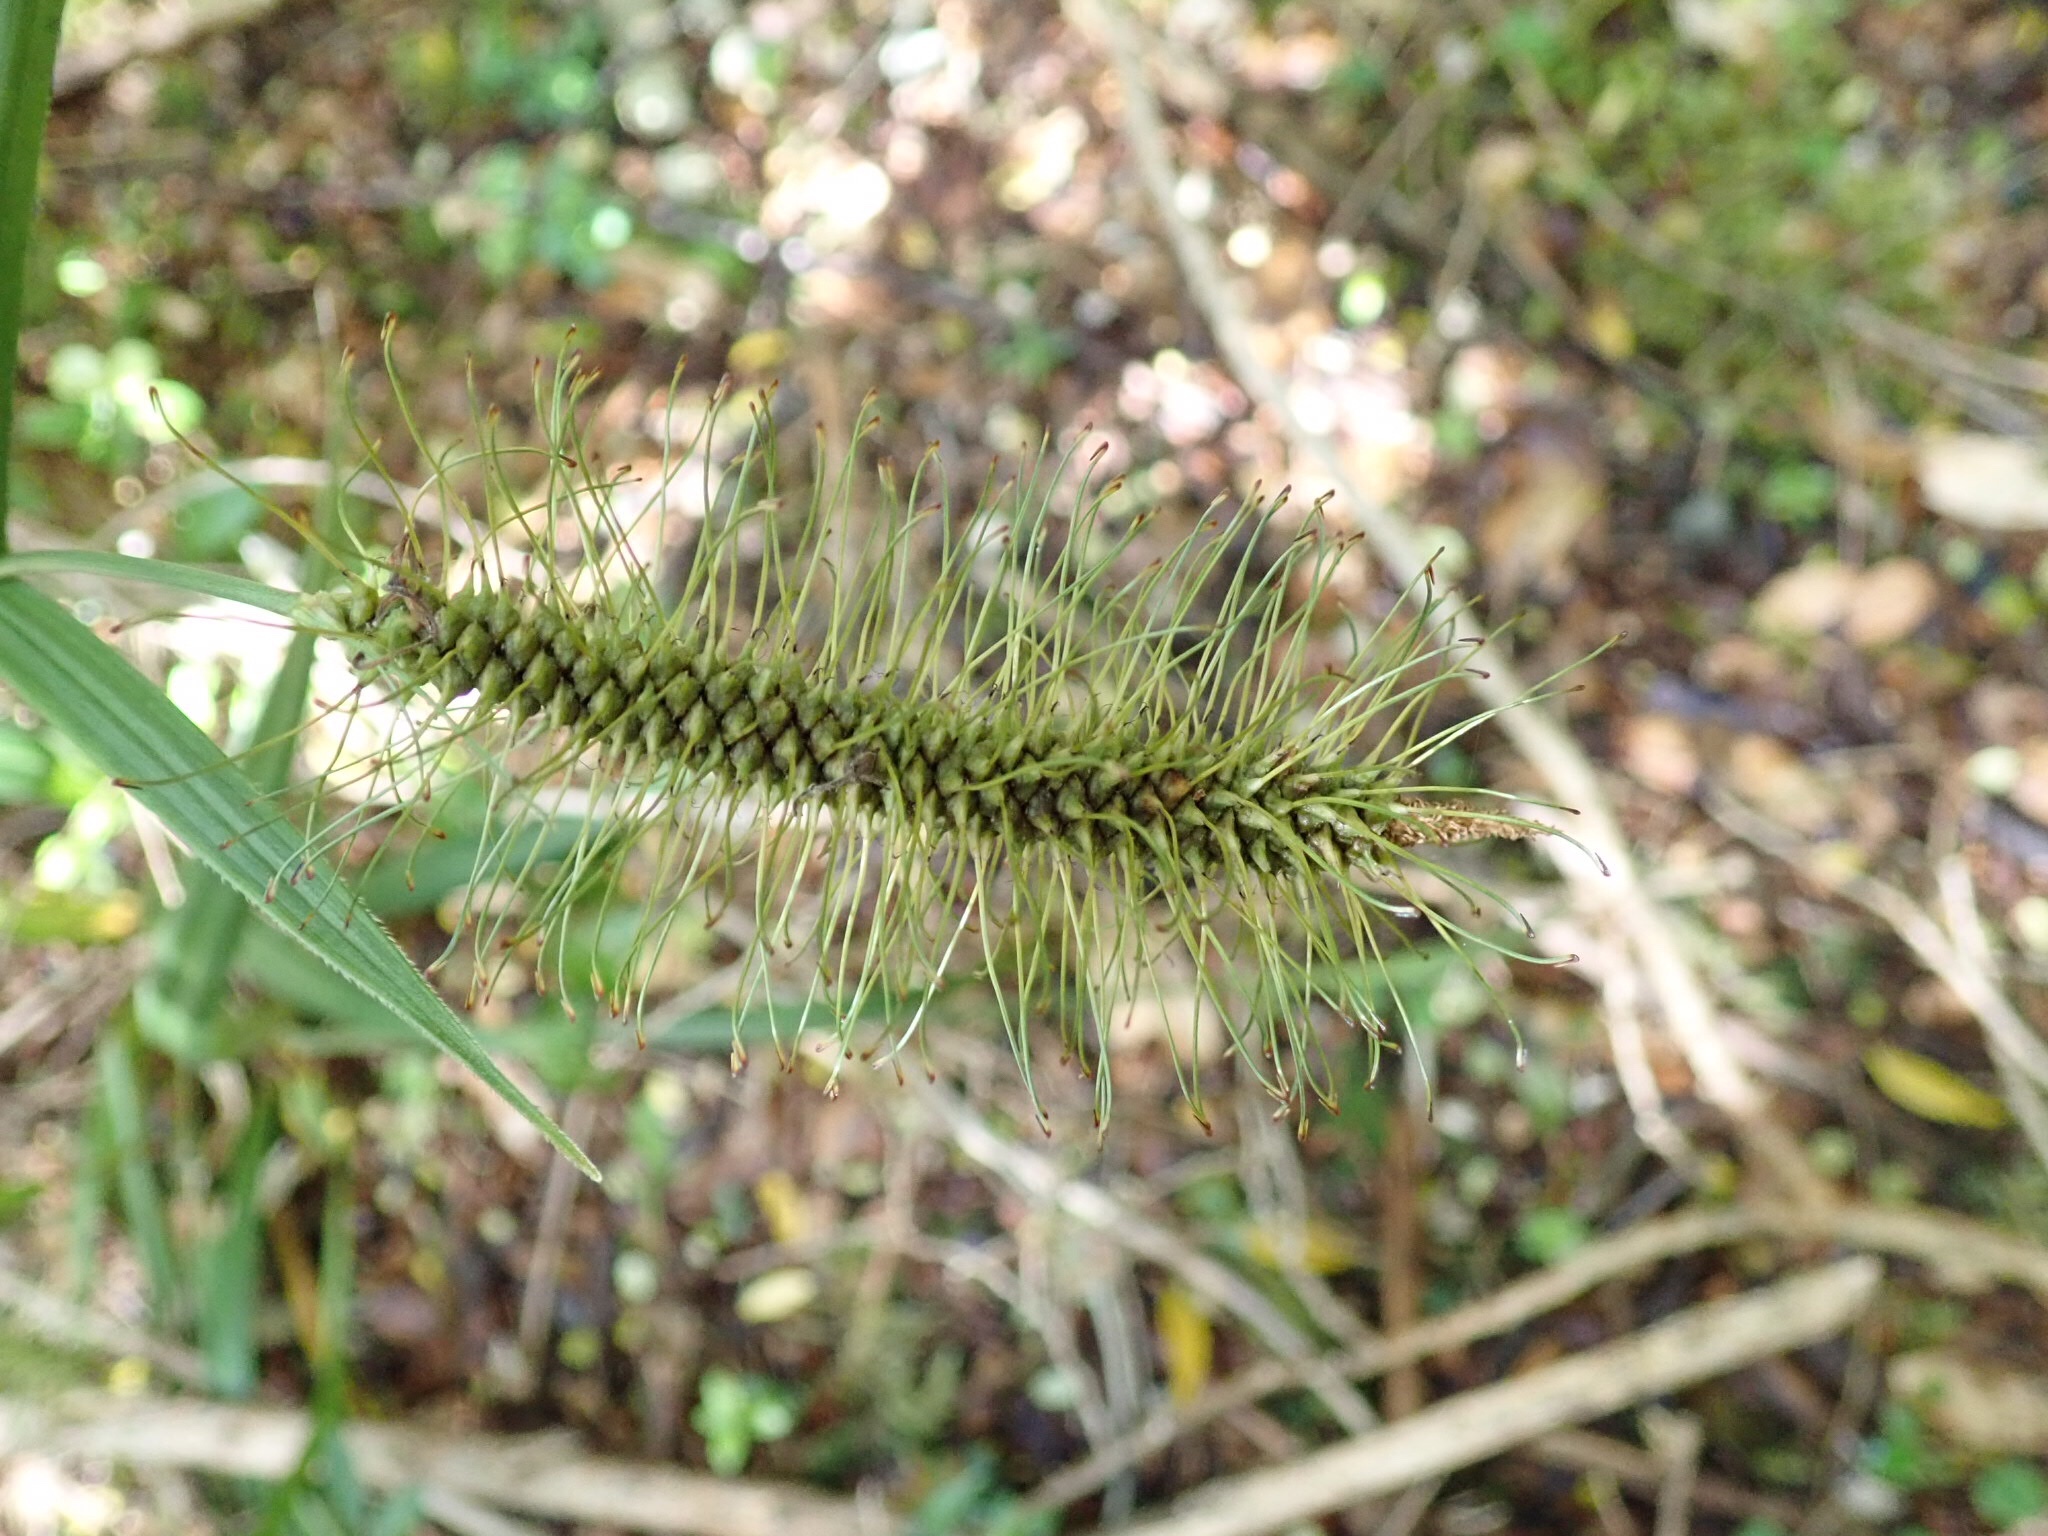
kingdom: Plantae
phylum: Tracheophyta
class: Liliopsida
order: Poales
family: Cyperaceae
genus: Carex
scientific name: Carex erinacea
